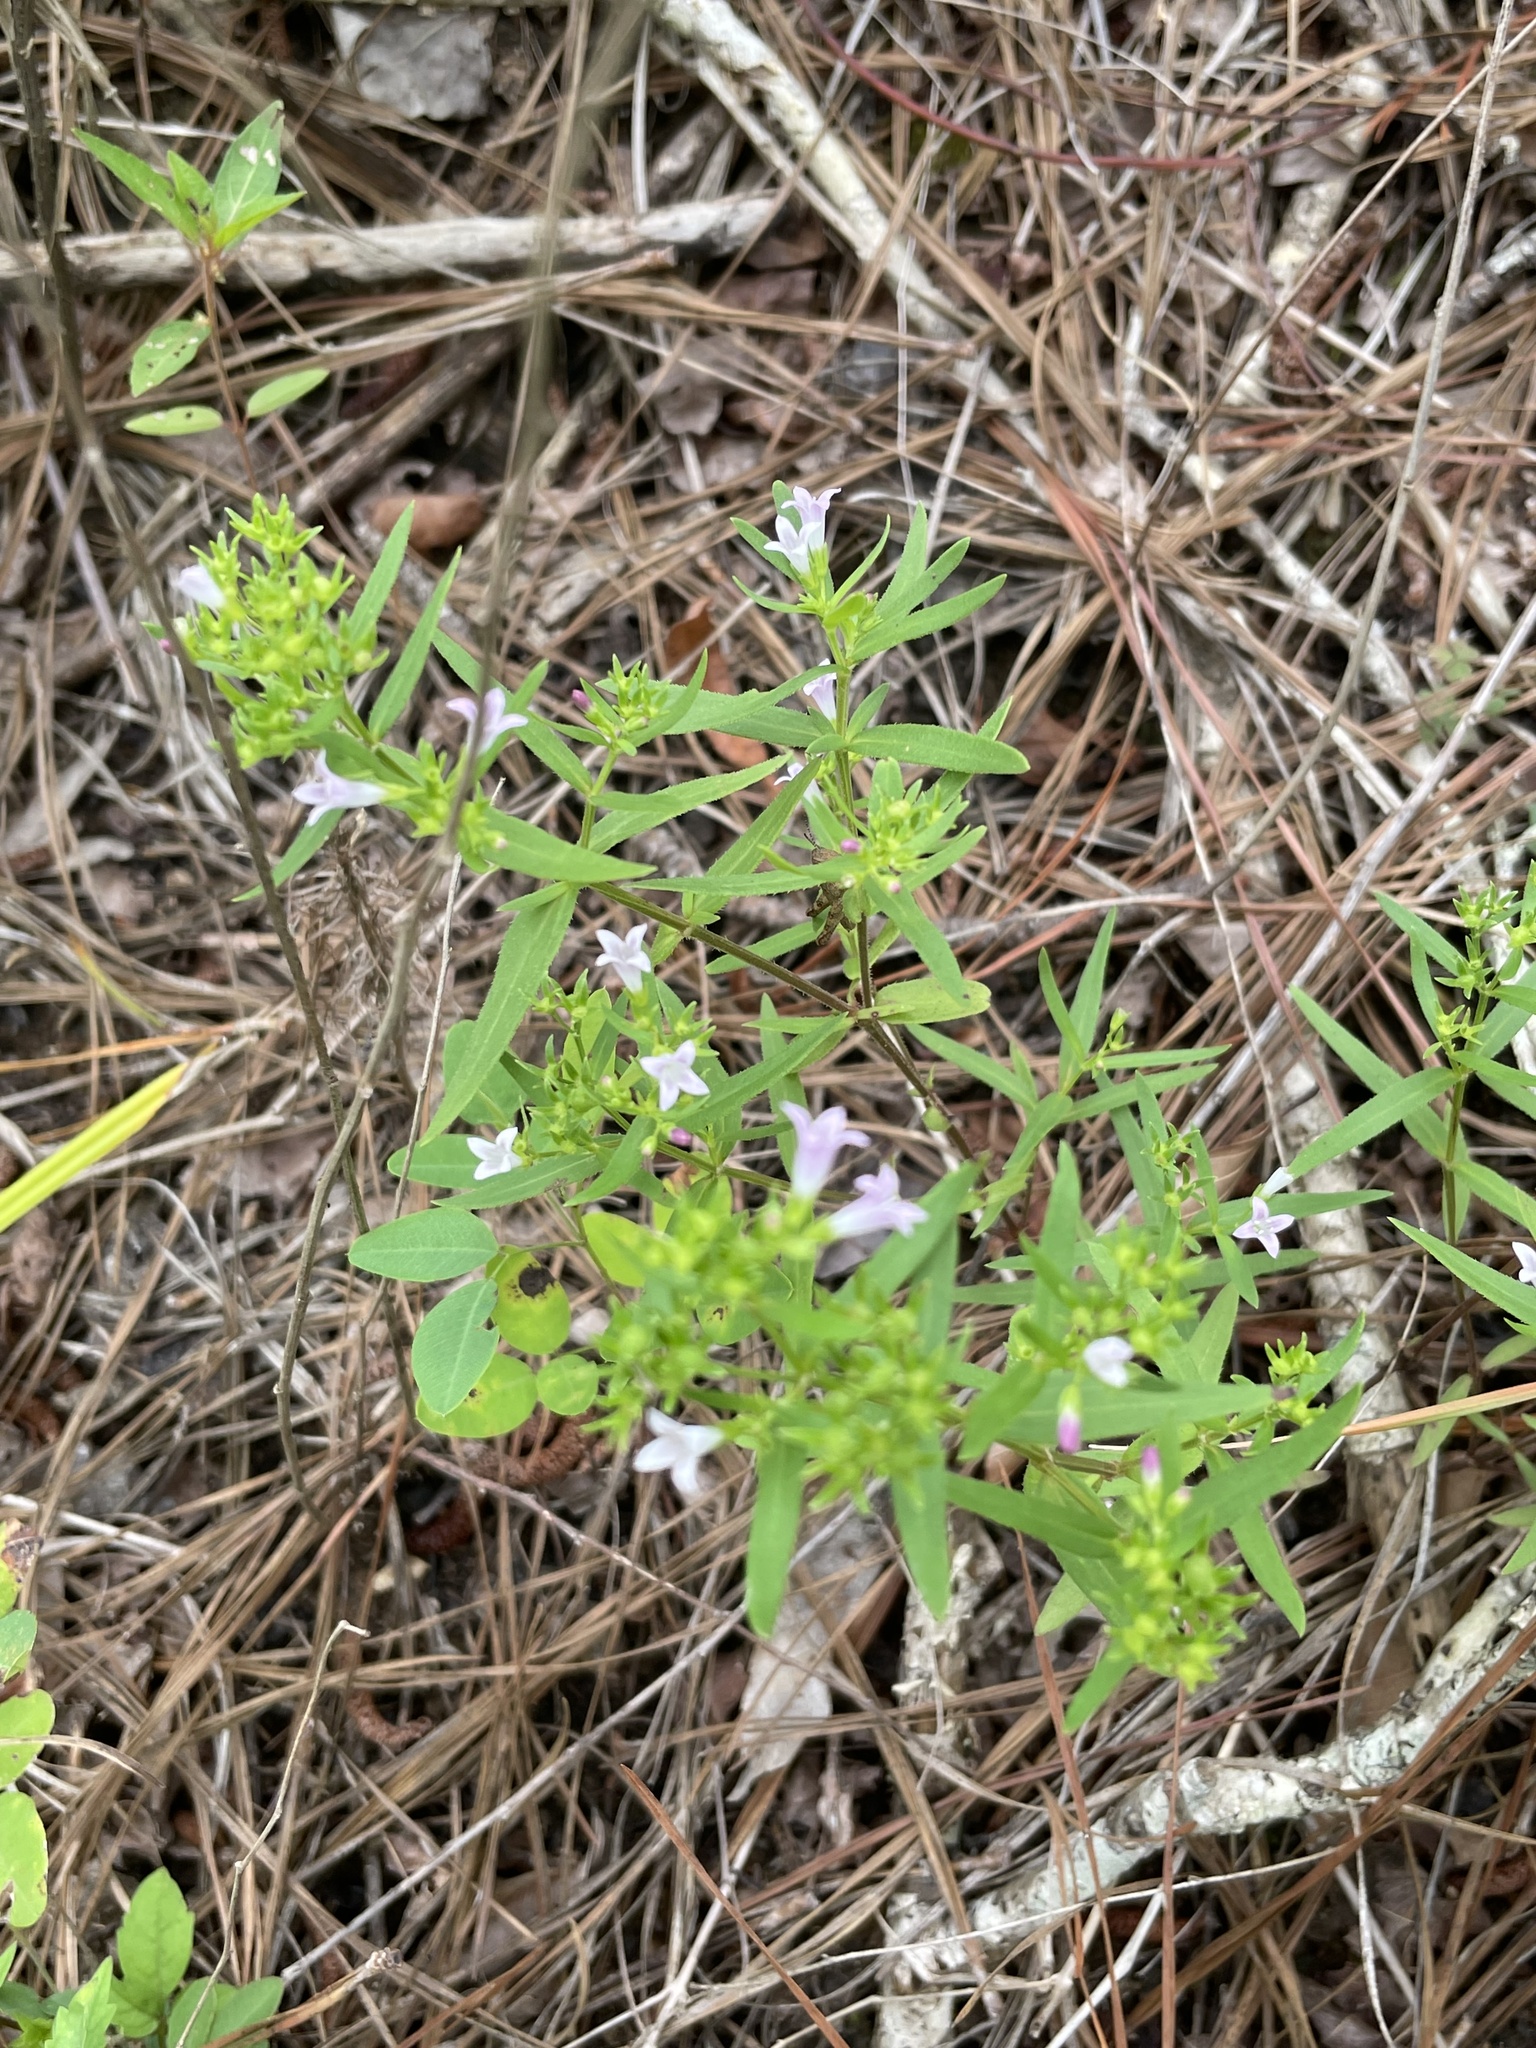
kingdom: Plantae
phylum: Tracheophyta
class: Magnoliopsida
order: Gentianales
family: Rubiaceae
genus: Houstonia
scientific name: Houstonia purpurea
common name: Summer bluet
